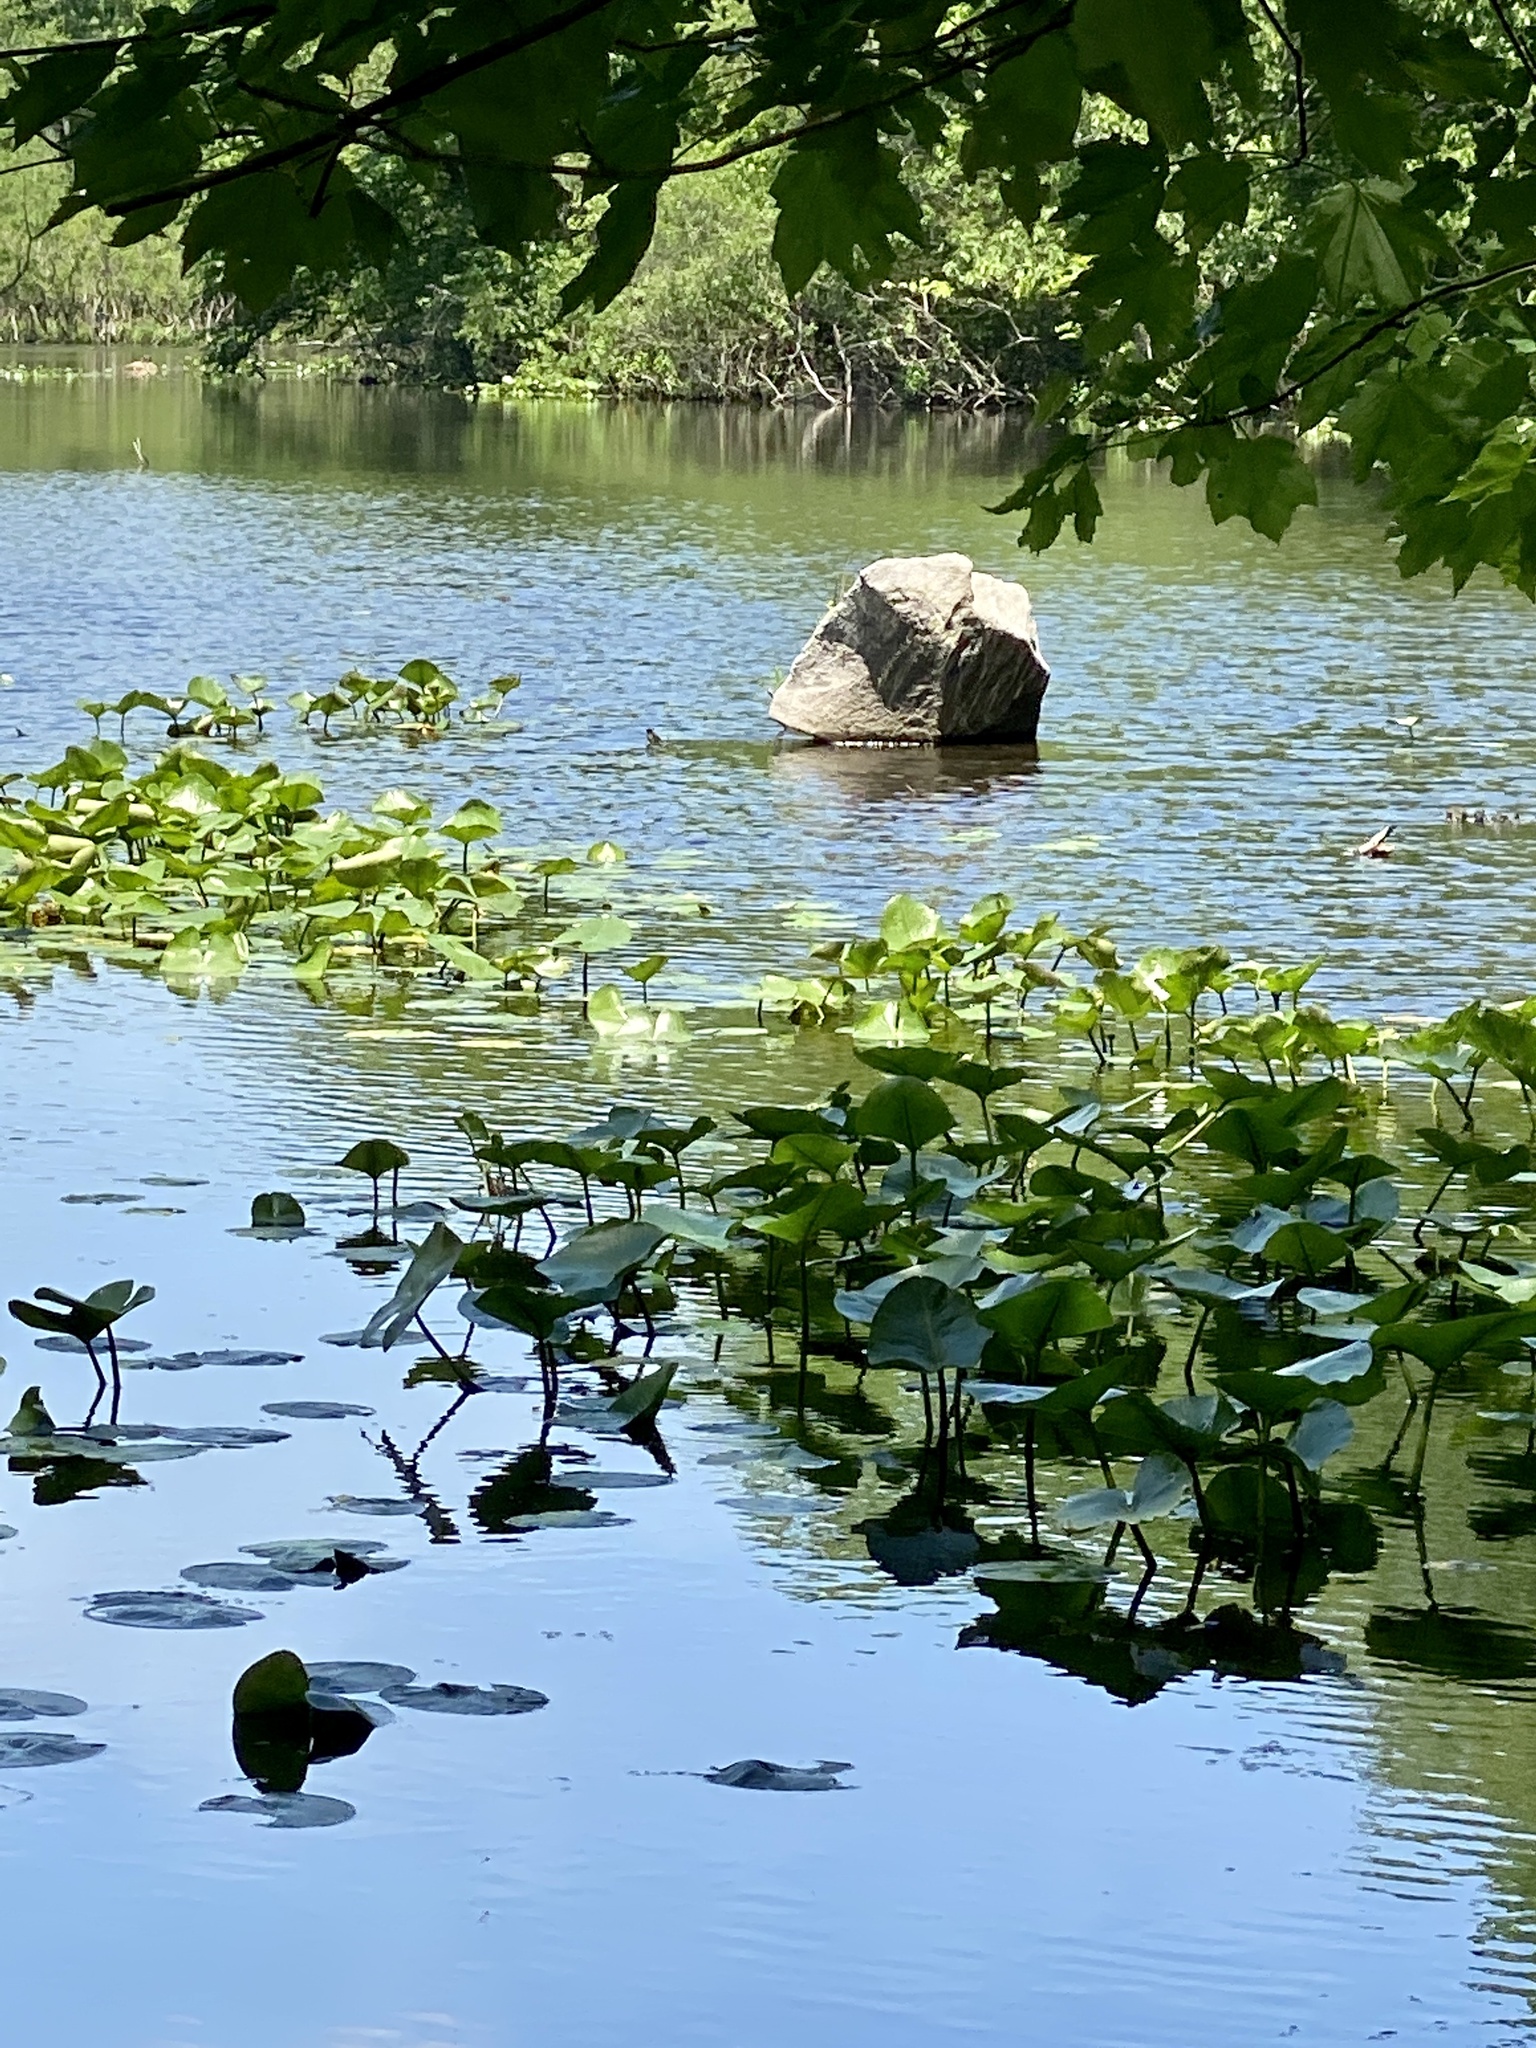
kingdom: Plantae
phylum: Tracheophyta
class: Magnoliopsida
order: Nymphaeales
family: Nymphaeaceae
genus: Nuphar
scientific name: Nuphar advena
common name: Spatter-dock
